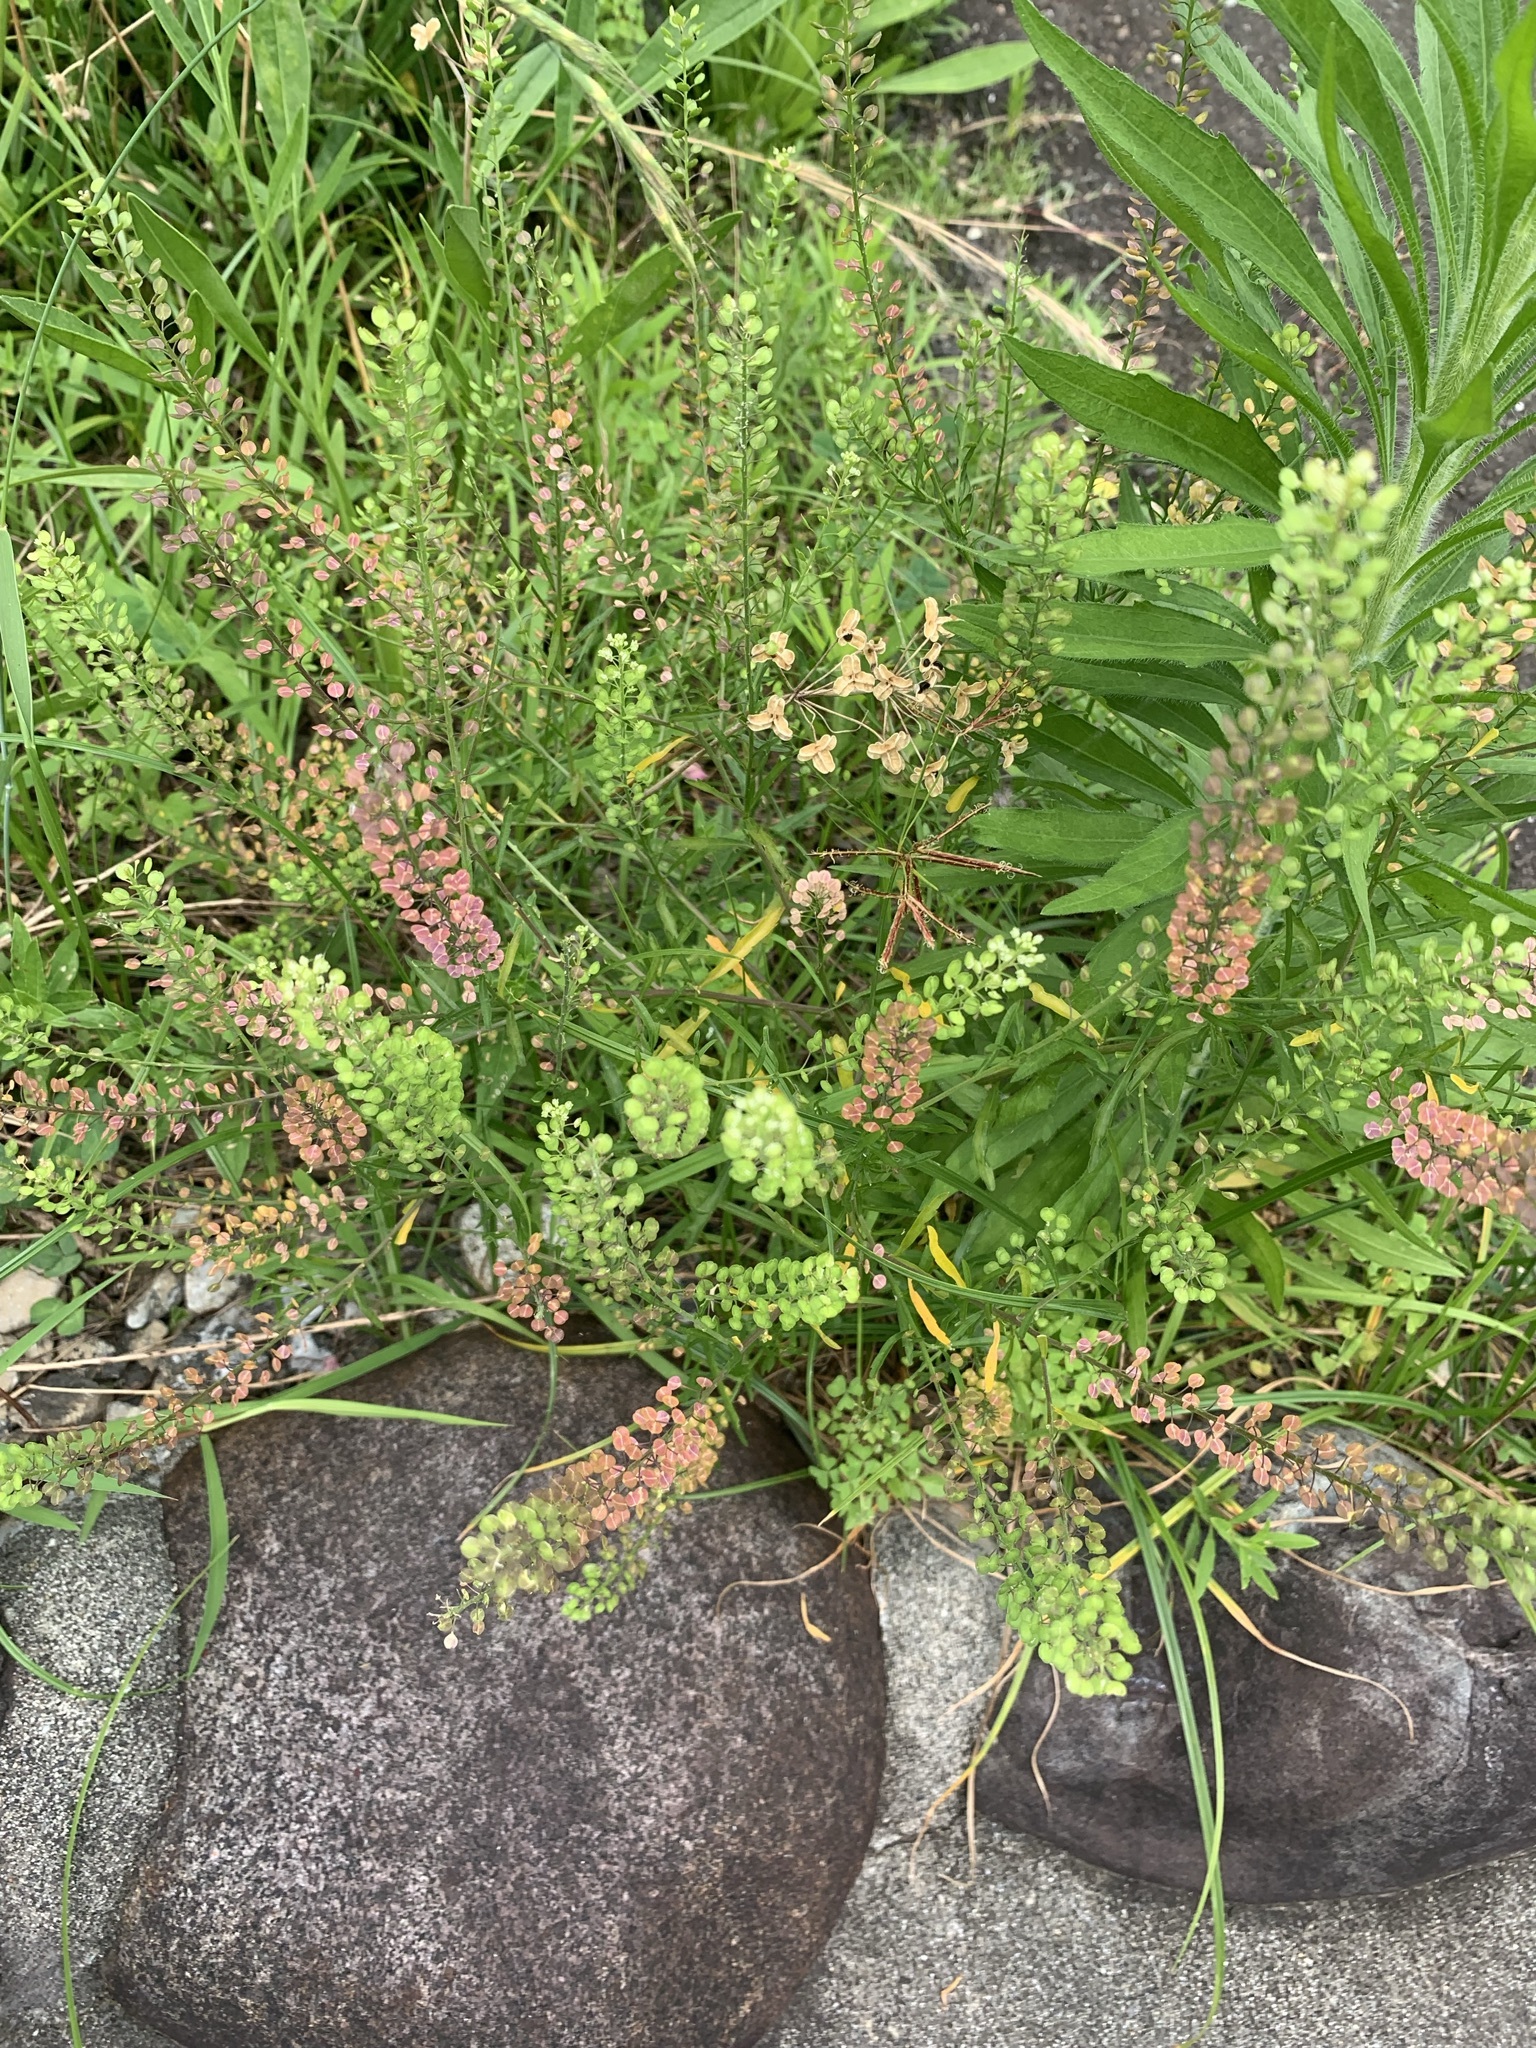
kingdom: Plantae
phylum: Tracheophyta
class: Magnoliopsida
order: Brassicales
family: Brassicaceae
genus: Lepidium
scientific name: Lepidium virginicum
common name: Least pepperwort
